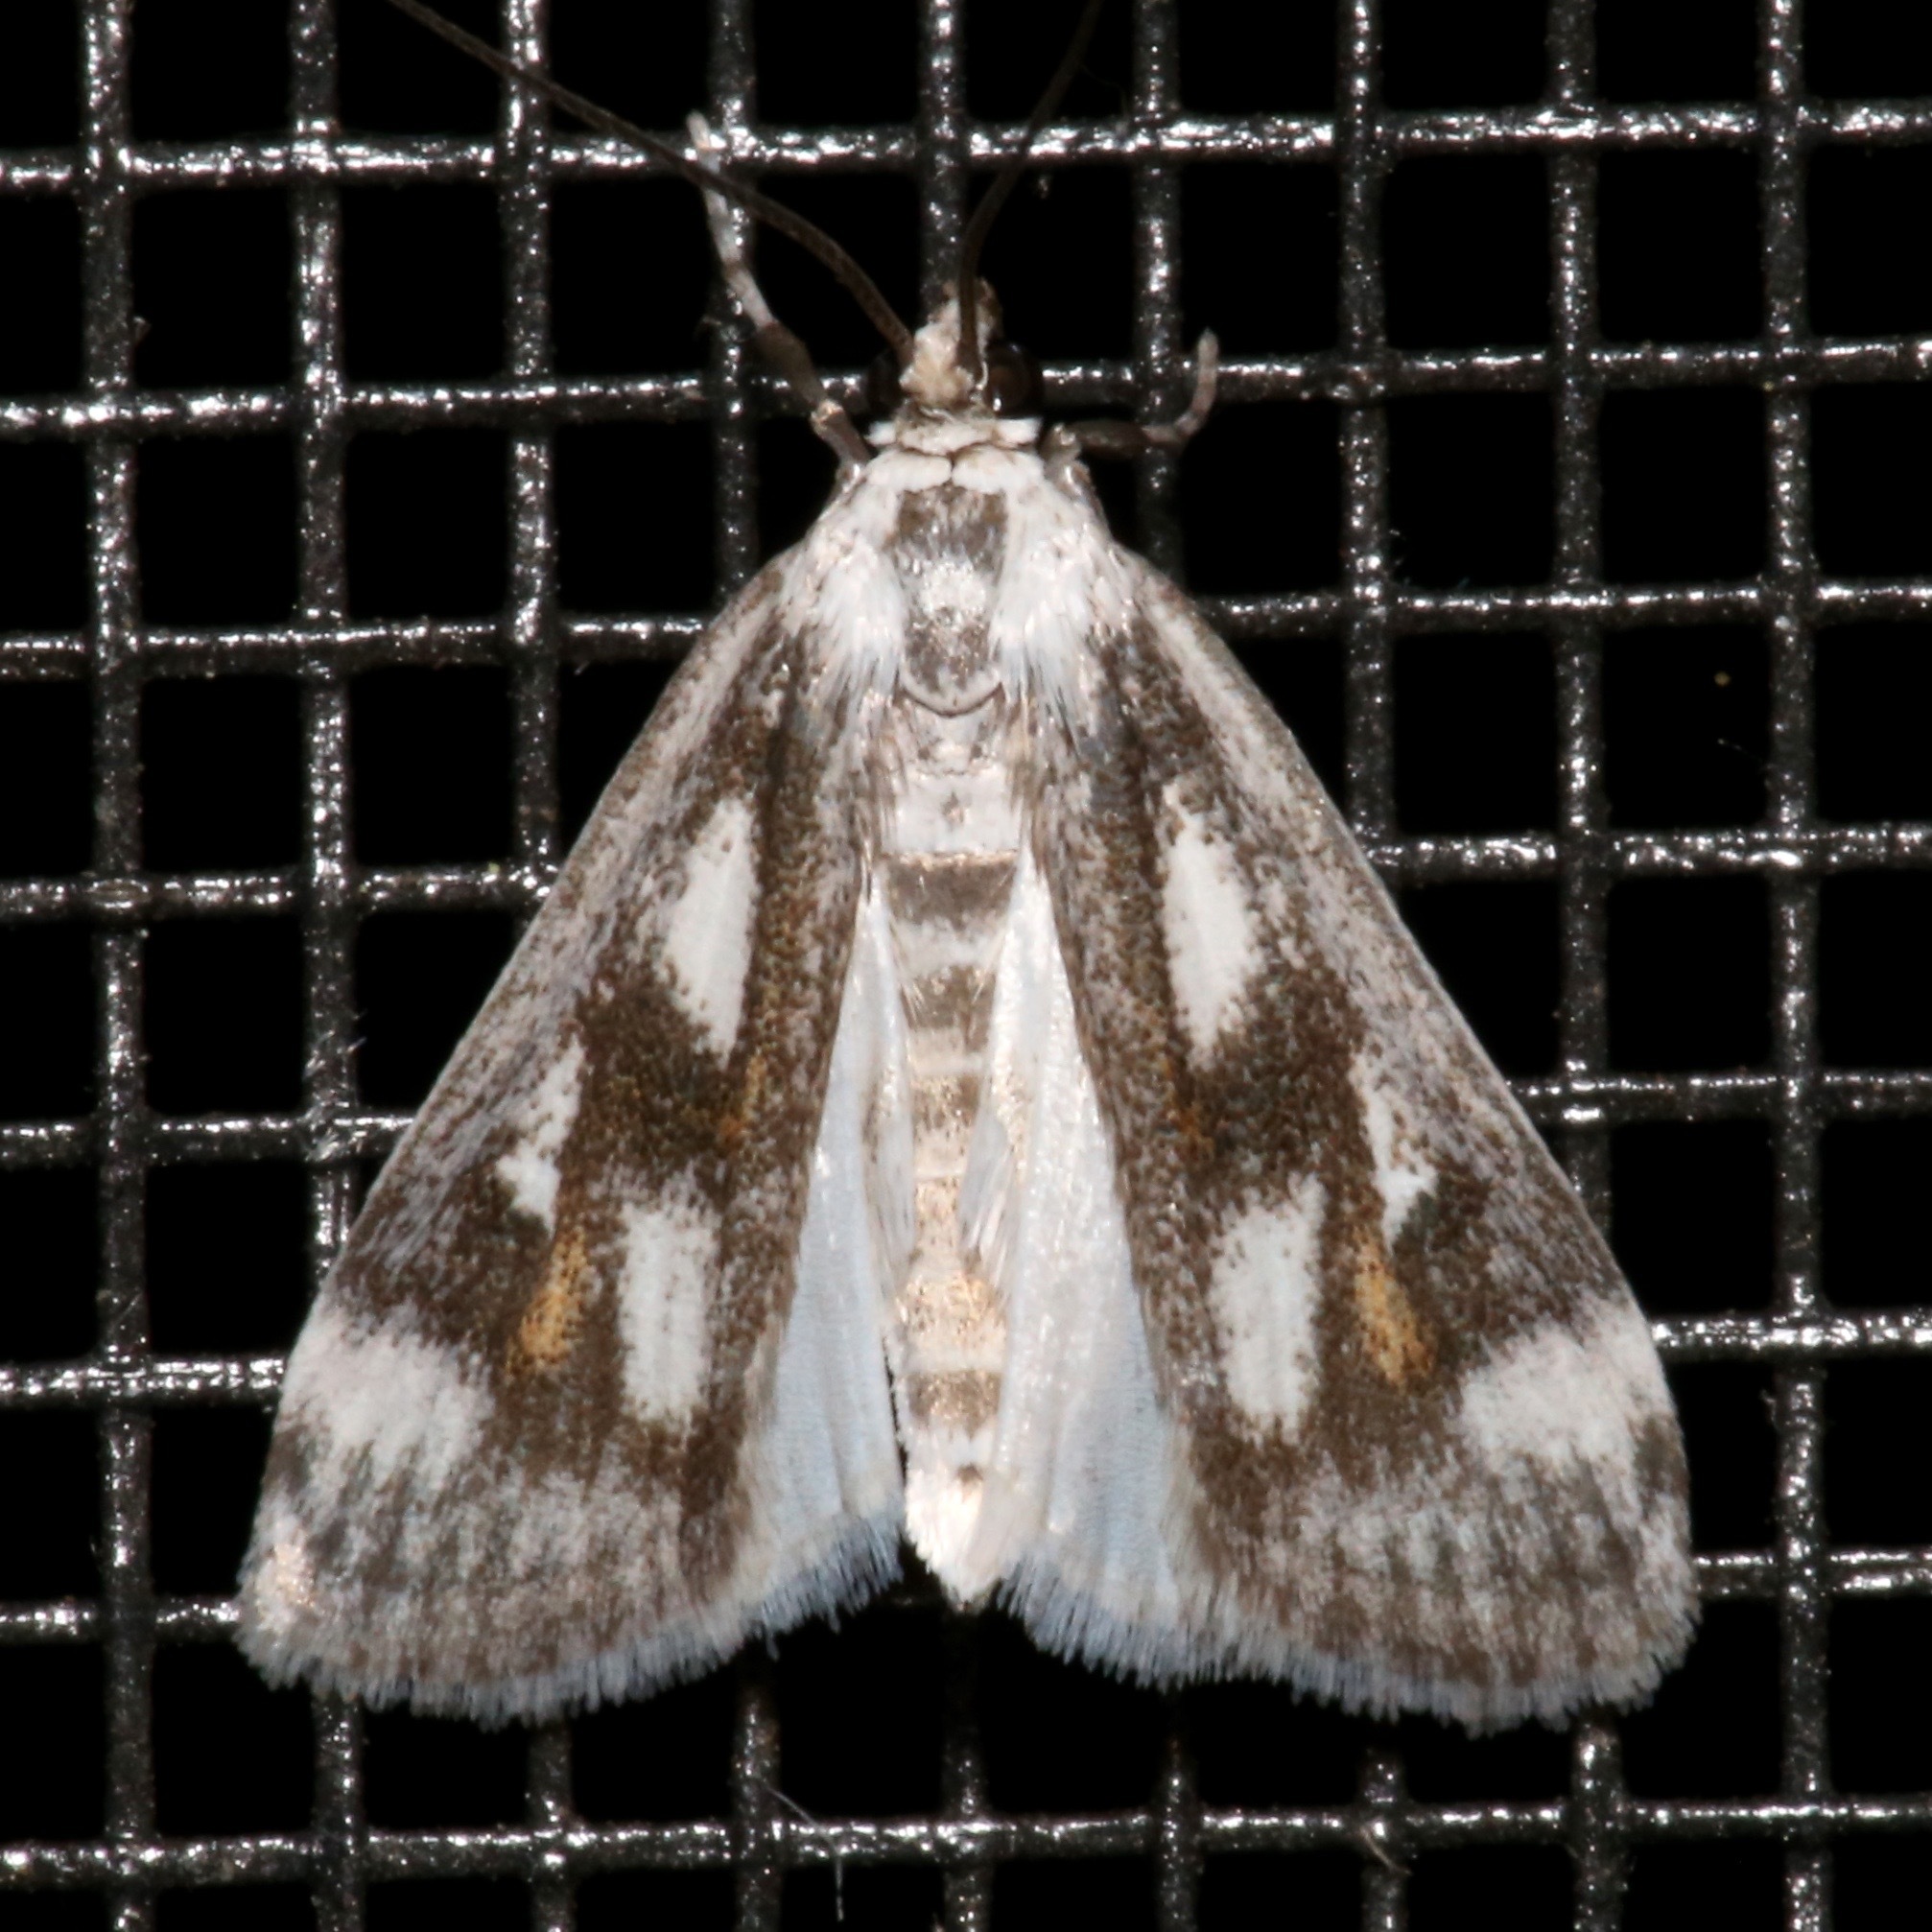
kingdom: Animalia
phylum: Arthropoda
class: Insecta
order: Lepidoptera
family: Crambidae
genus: Parapoynx
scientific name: Parapoynx maculalis
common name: Polymorphic pondweed moth
